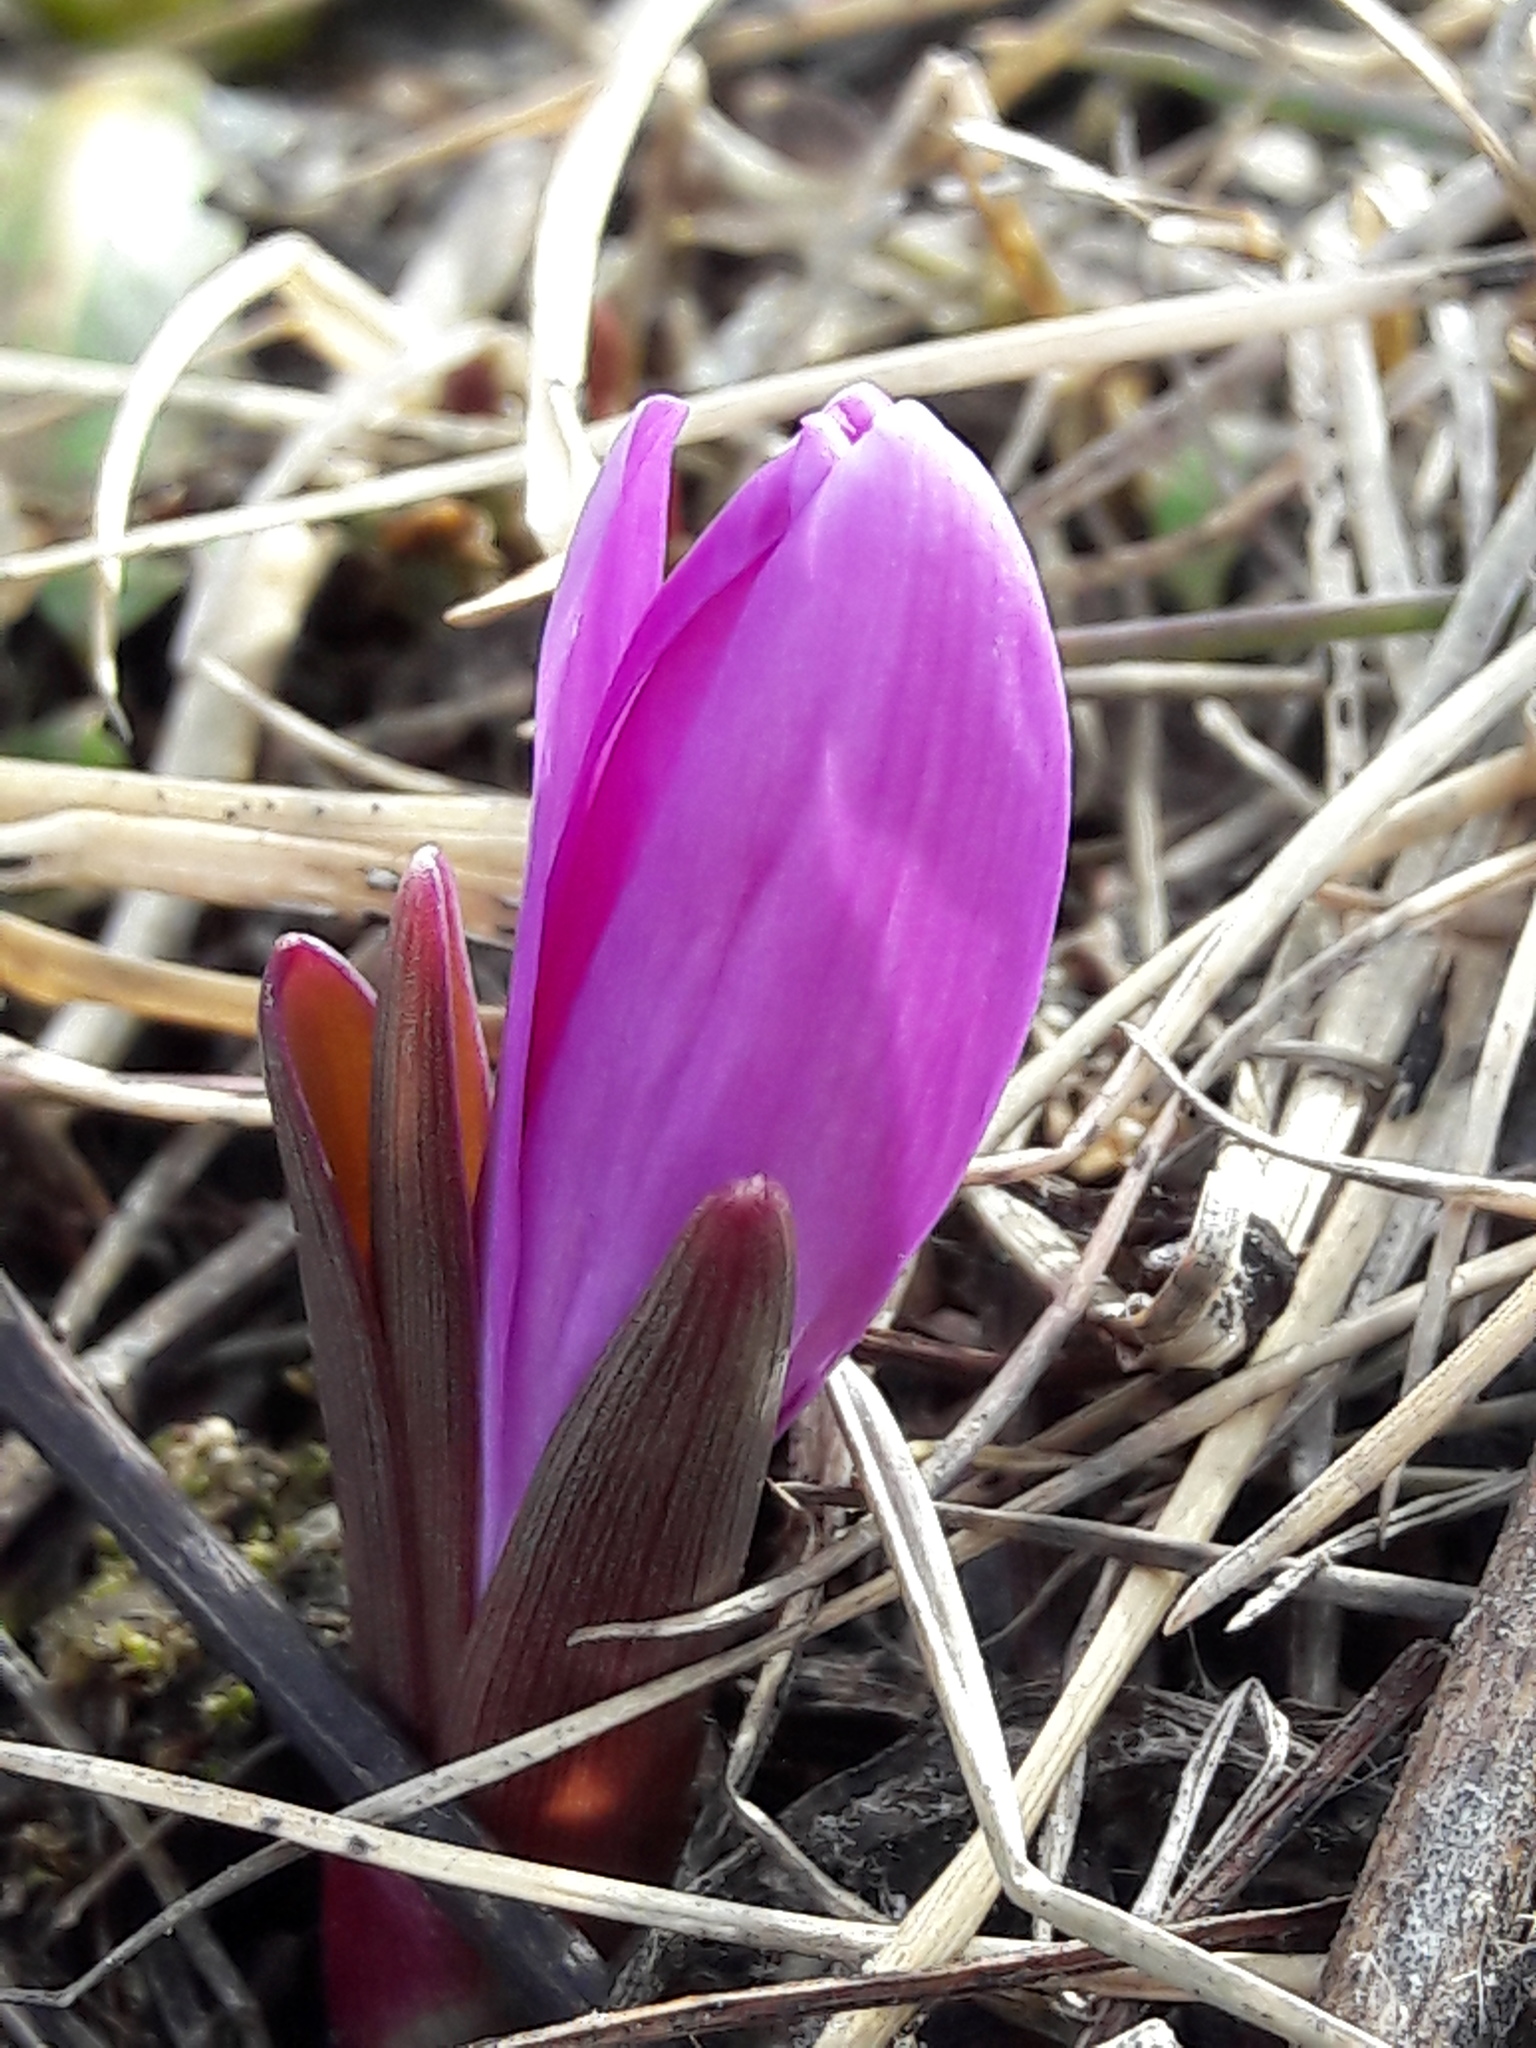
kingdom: Plantae
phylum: Tracheophyta
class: Liliopsida
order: Liliales
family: Colchicaceae
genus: Colchicum
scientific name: Colchicum bulbocodium
